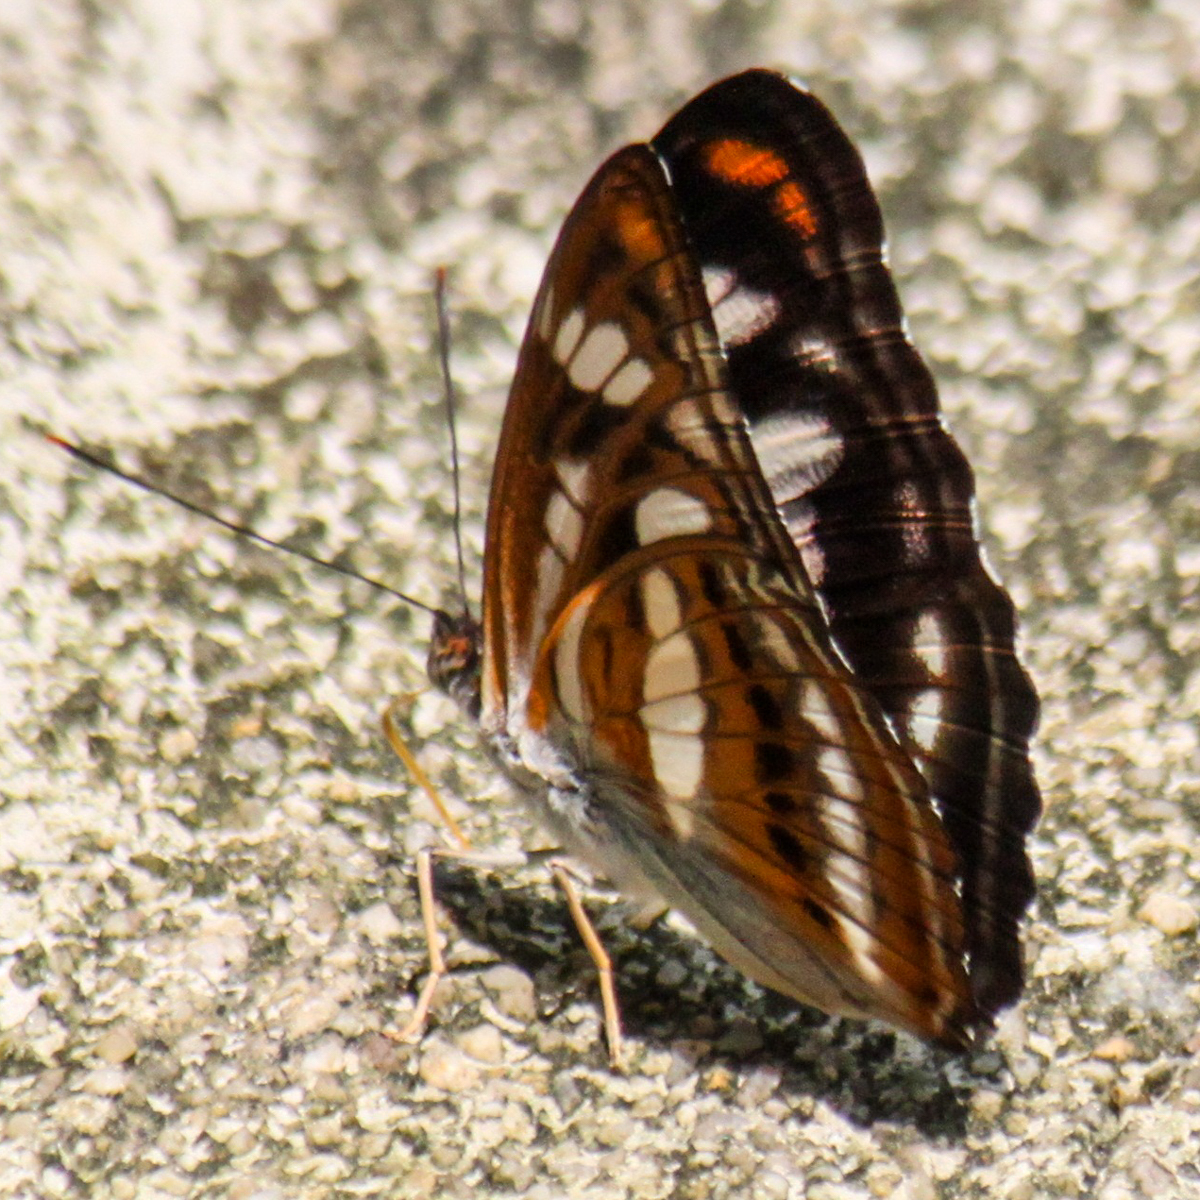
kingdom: Animalia
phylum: Arthropoda
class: Insecta
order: Lepidoptera
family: Nymphalidae
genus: Parathyma
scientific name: Parathyma nefte
